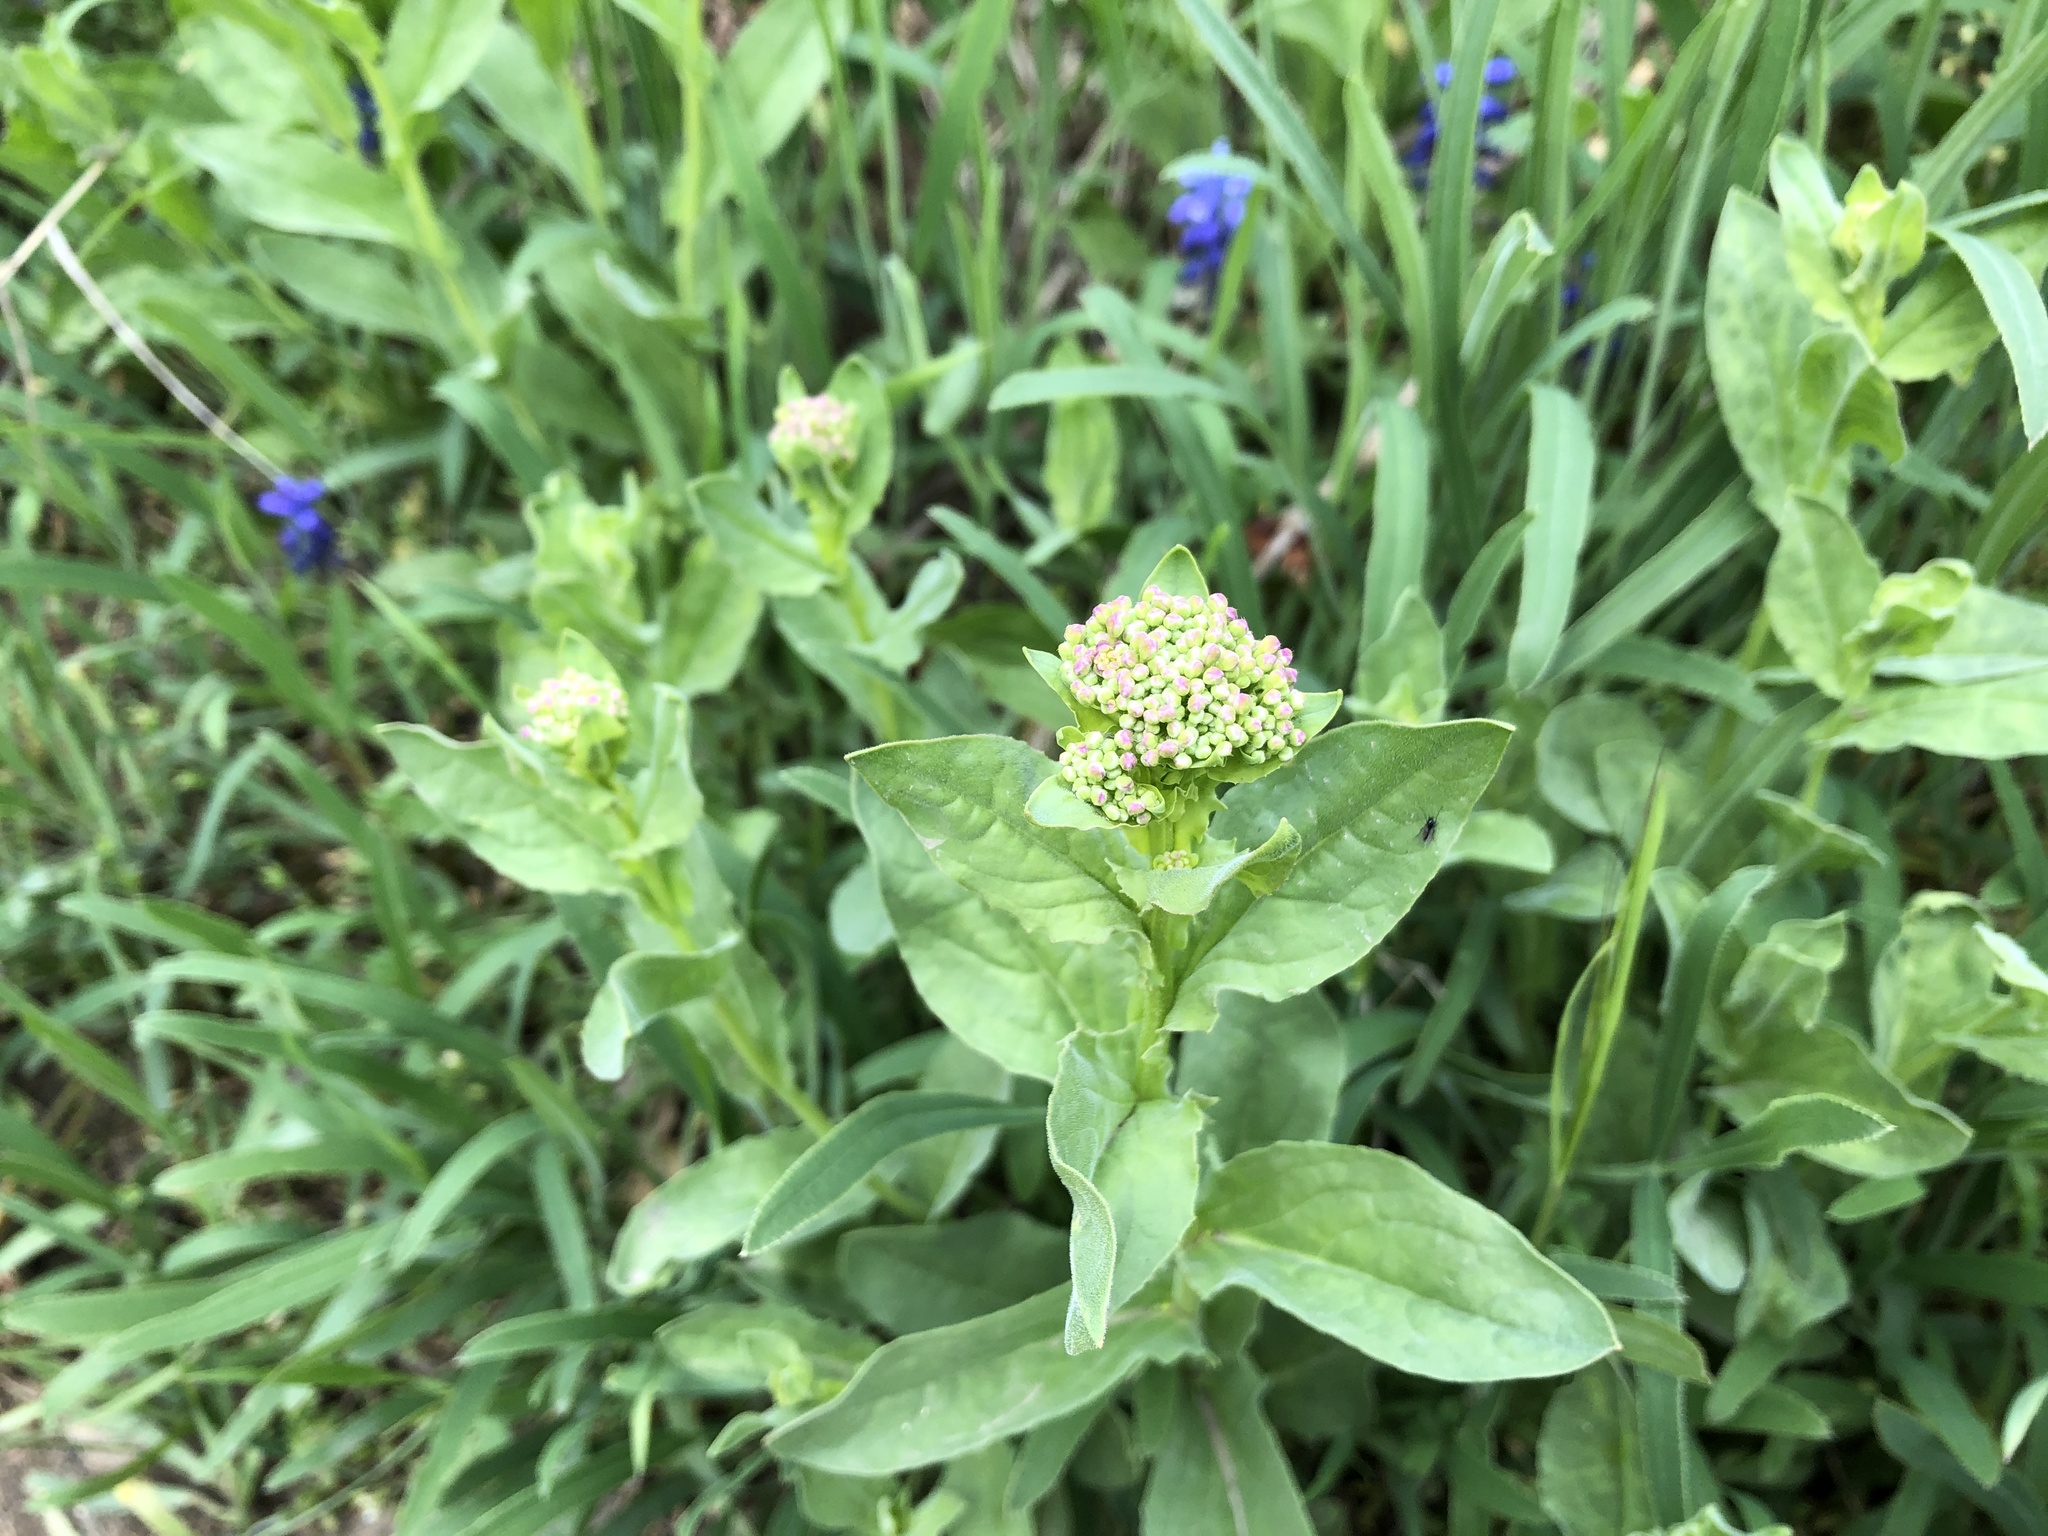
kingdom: Plantae
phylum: Tracheophyta
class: Magnoliopsida
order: Brassicales
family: Brassicaceae
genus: Lepidium
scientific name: Lepidium draba
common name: Hoary cress
